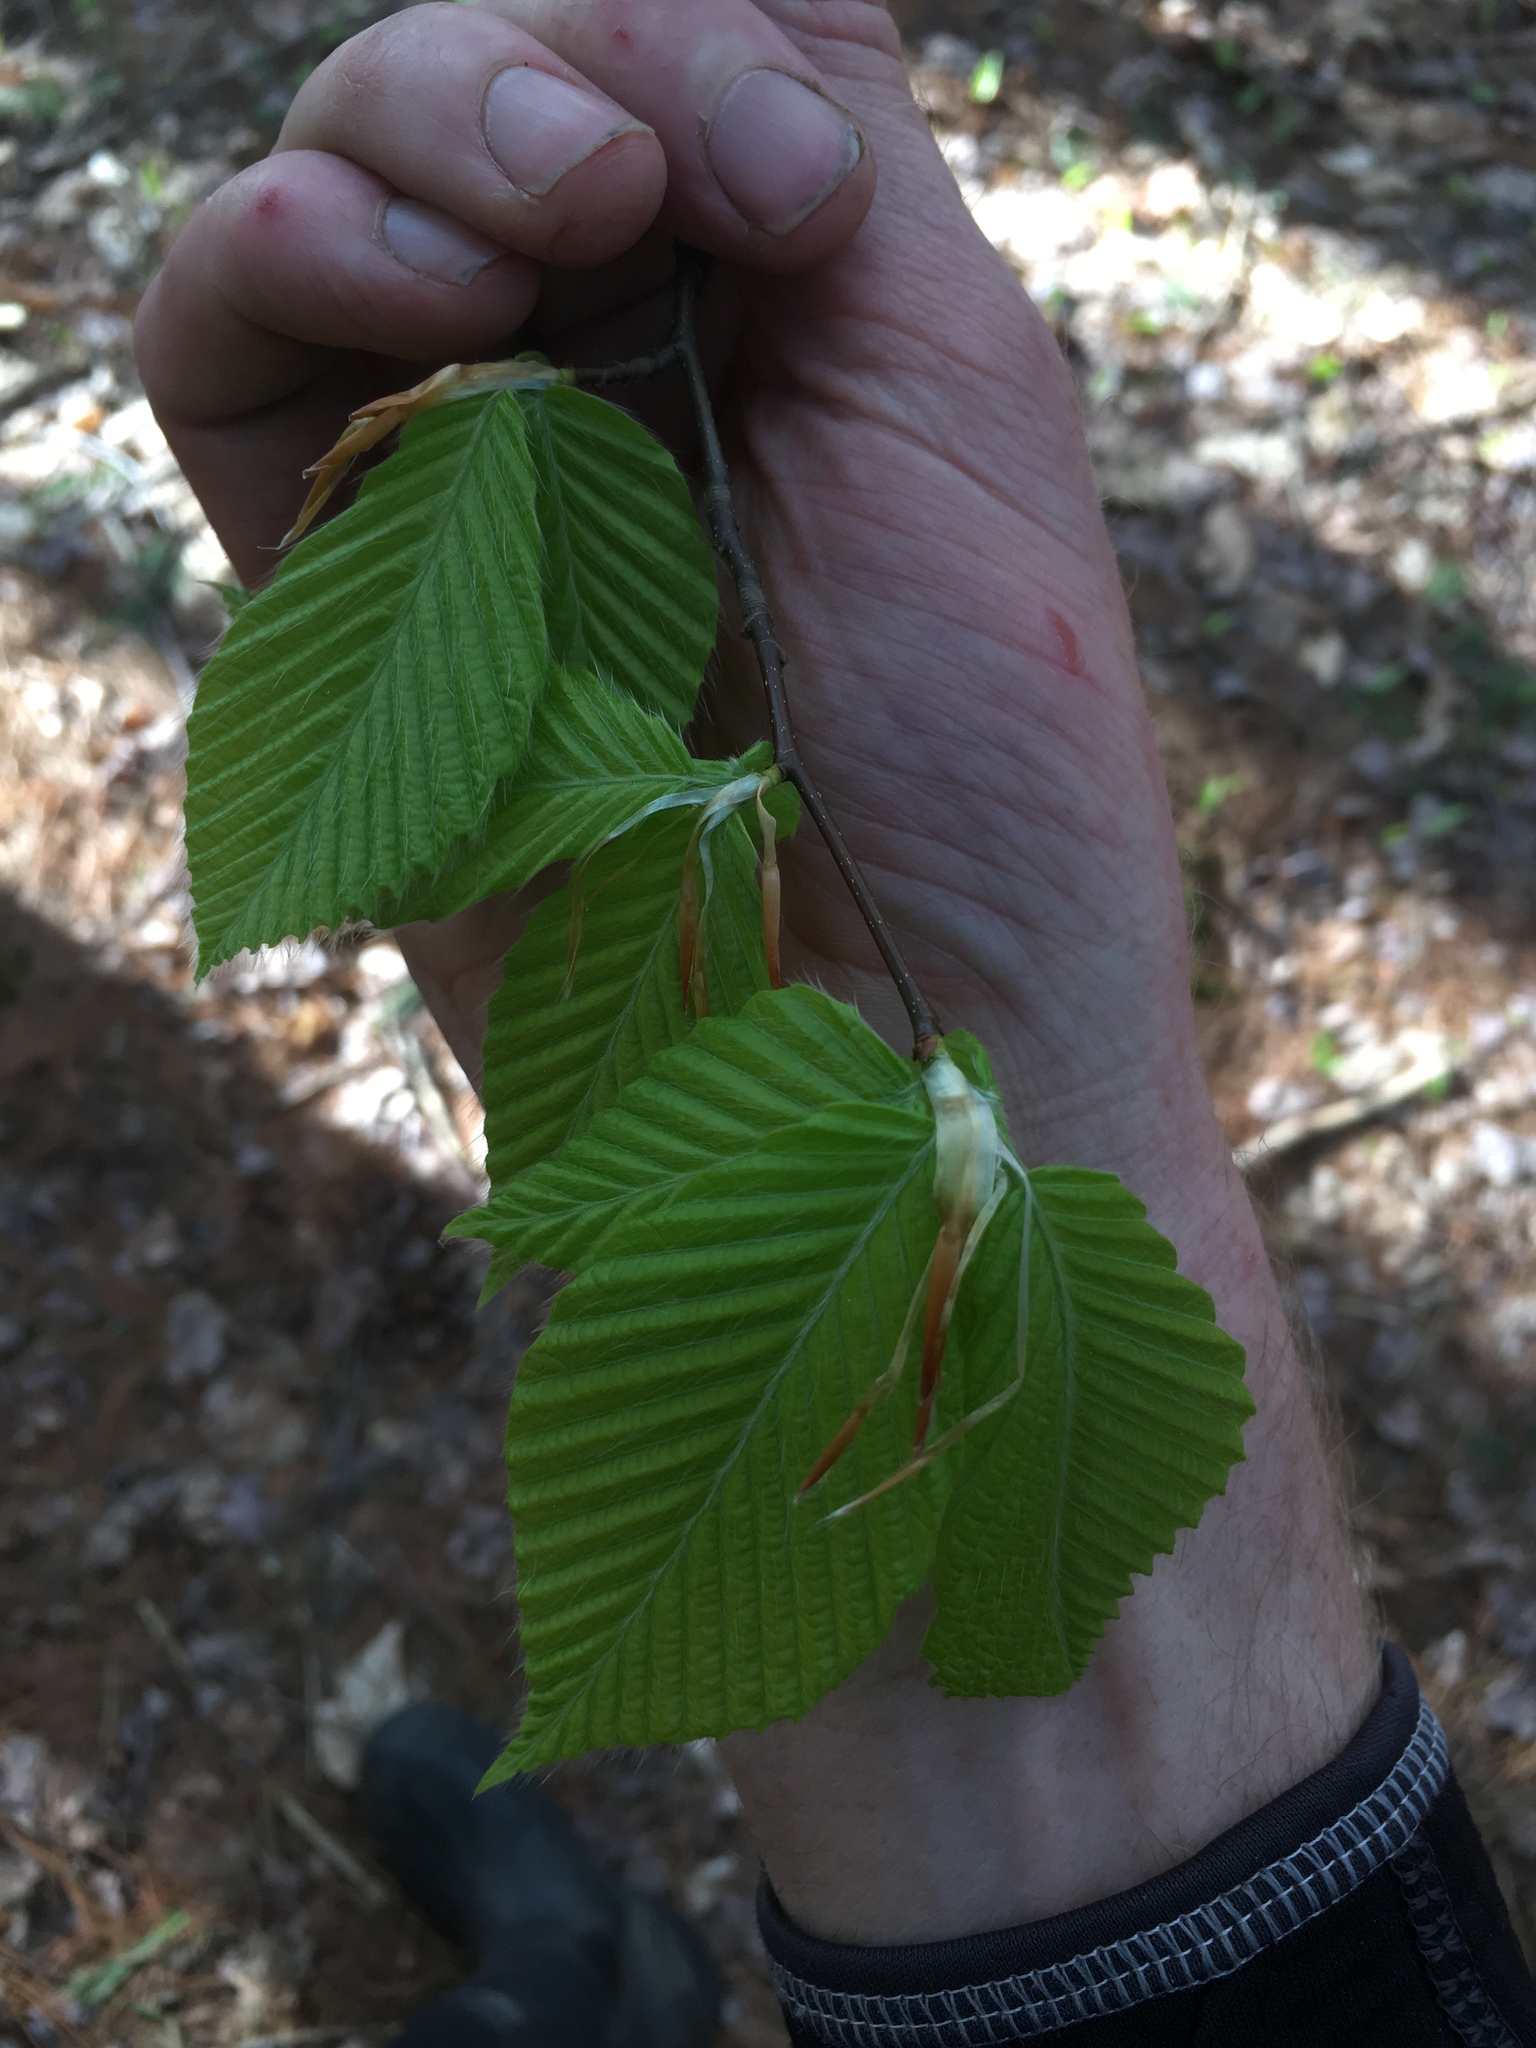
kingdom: Plantae
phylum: Tracheophyta
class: Magnoliopsida
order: Fagales
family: Fagaceae
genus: Fagus
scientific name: Fagus grandifolia
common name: American beech
